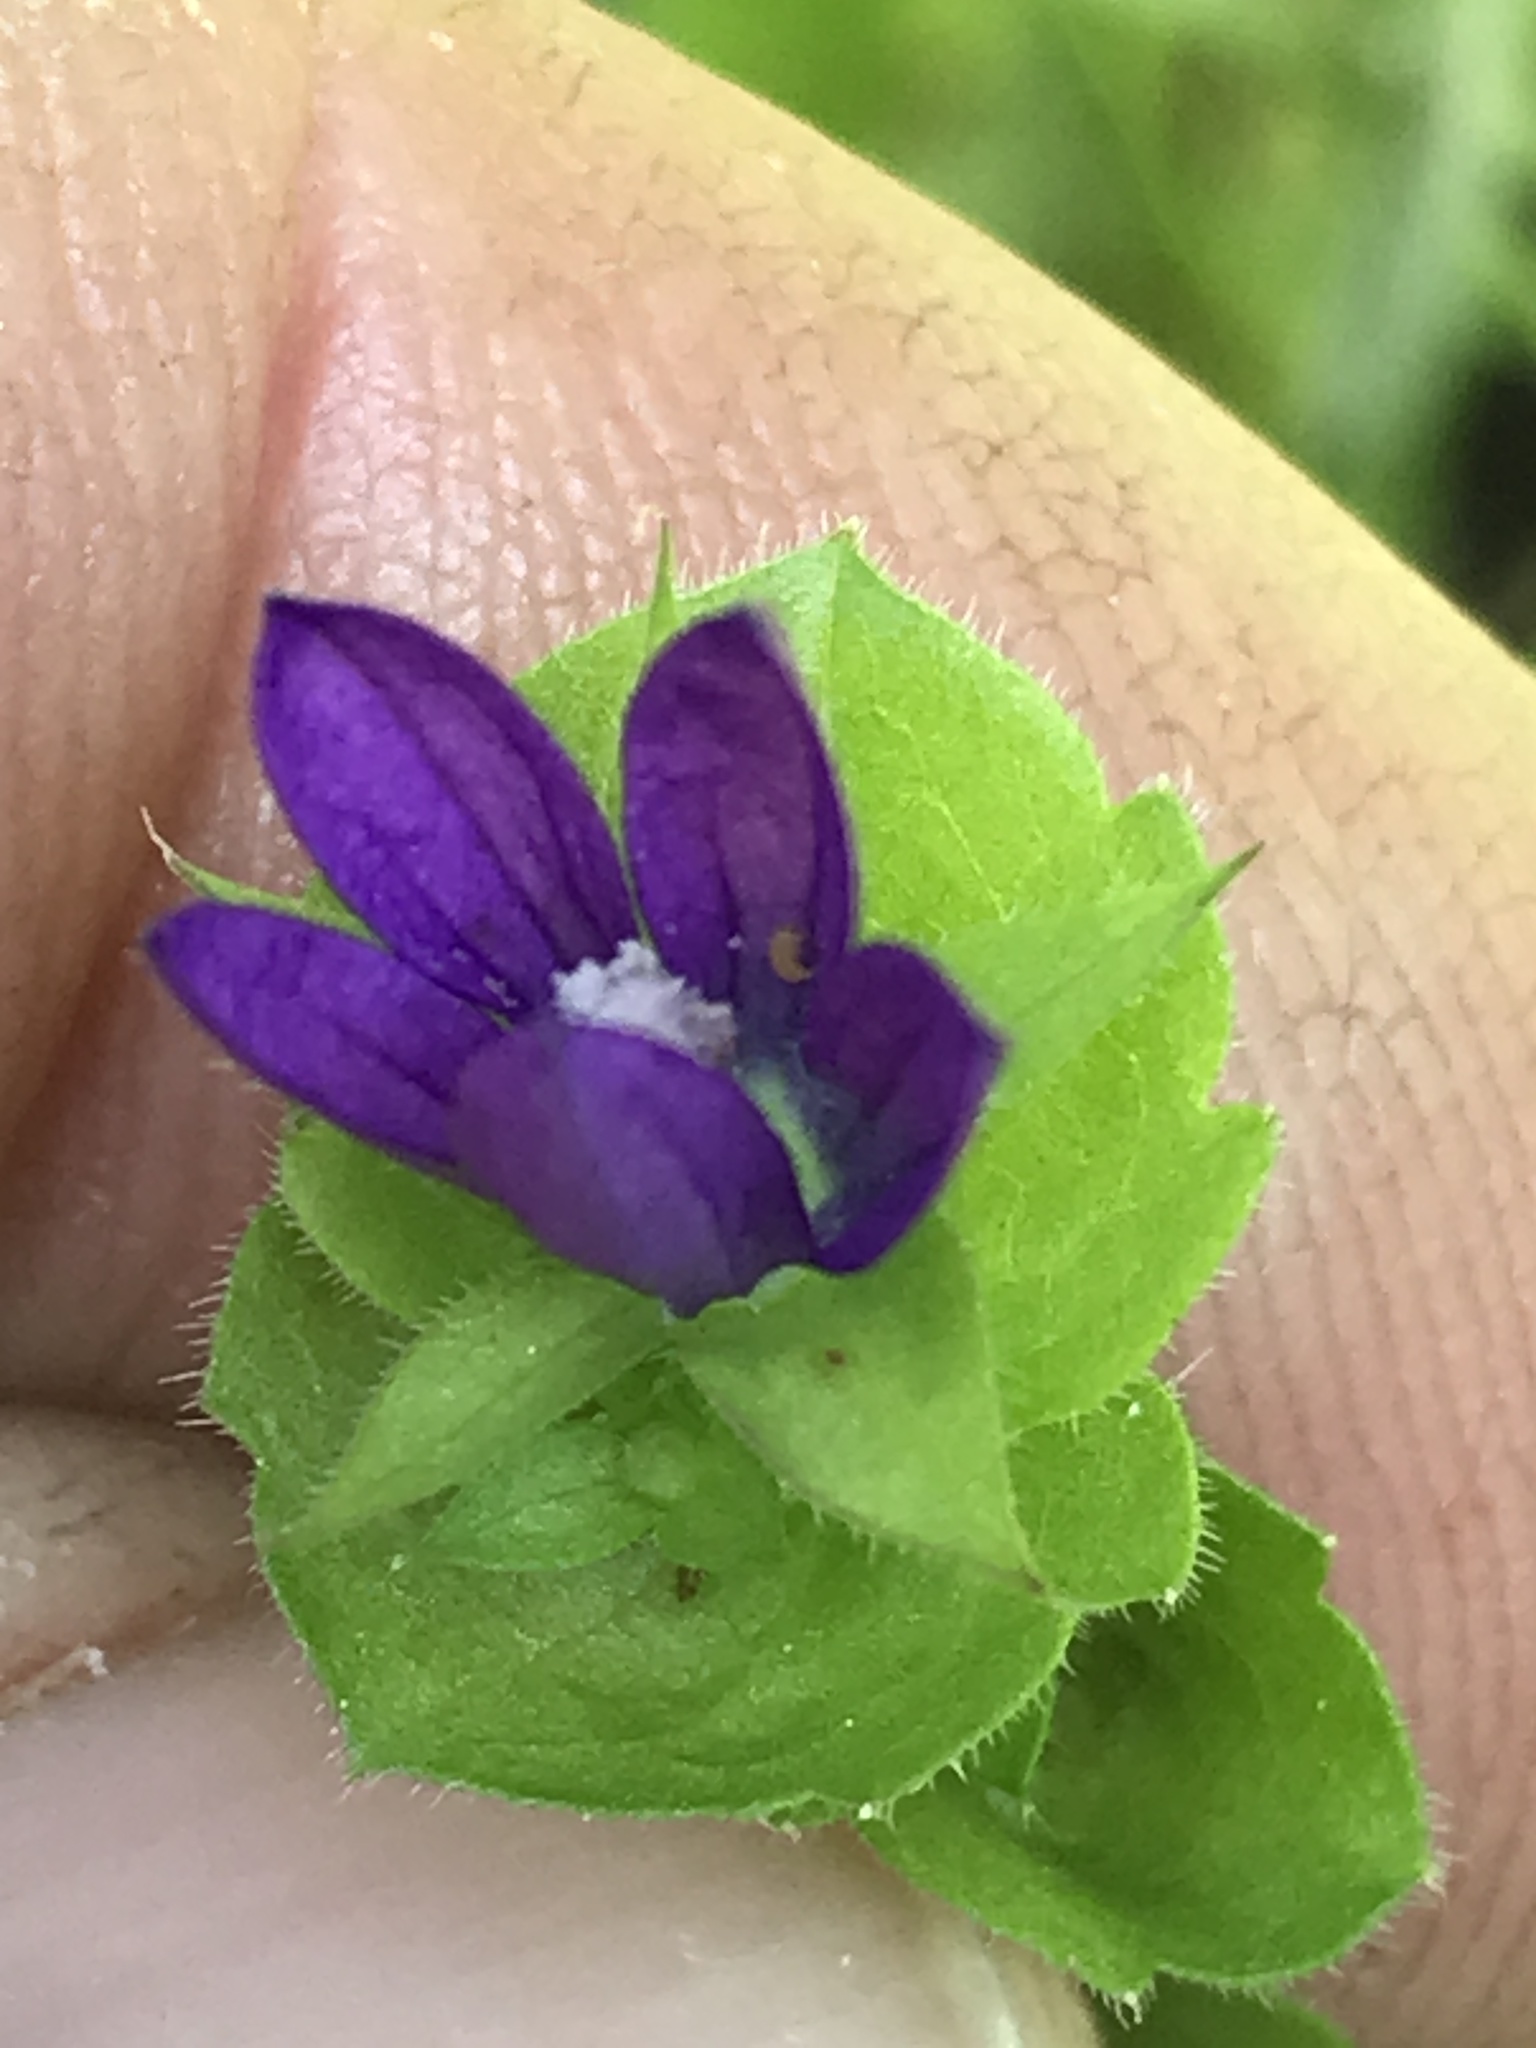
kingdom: Plantae
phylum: Tracheophyta
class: Magnoliopsida
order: Asterales
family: Campanulaceae
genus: Triodanis
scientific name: Triodanis perfoliata
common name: Clasping venus' looking-glass
